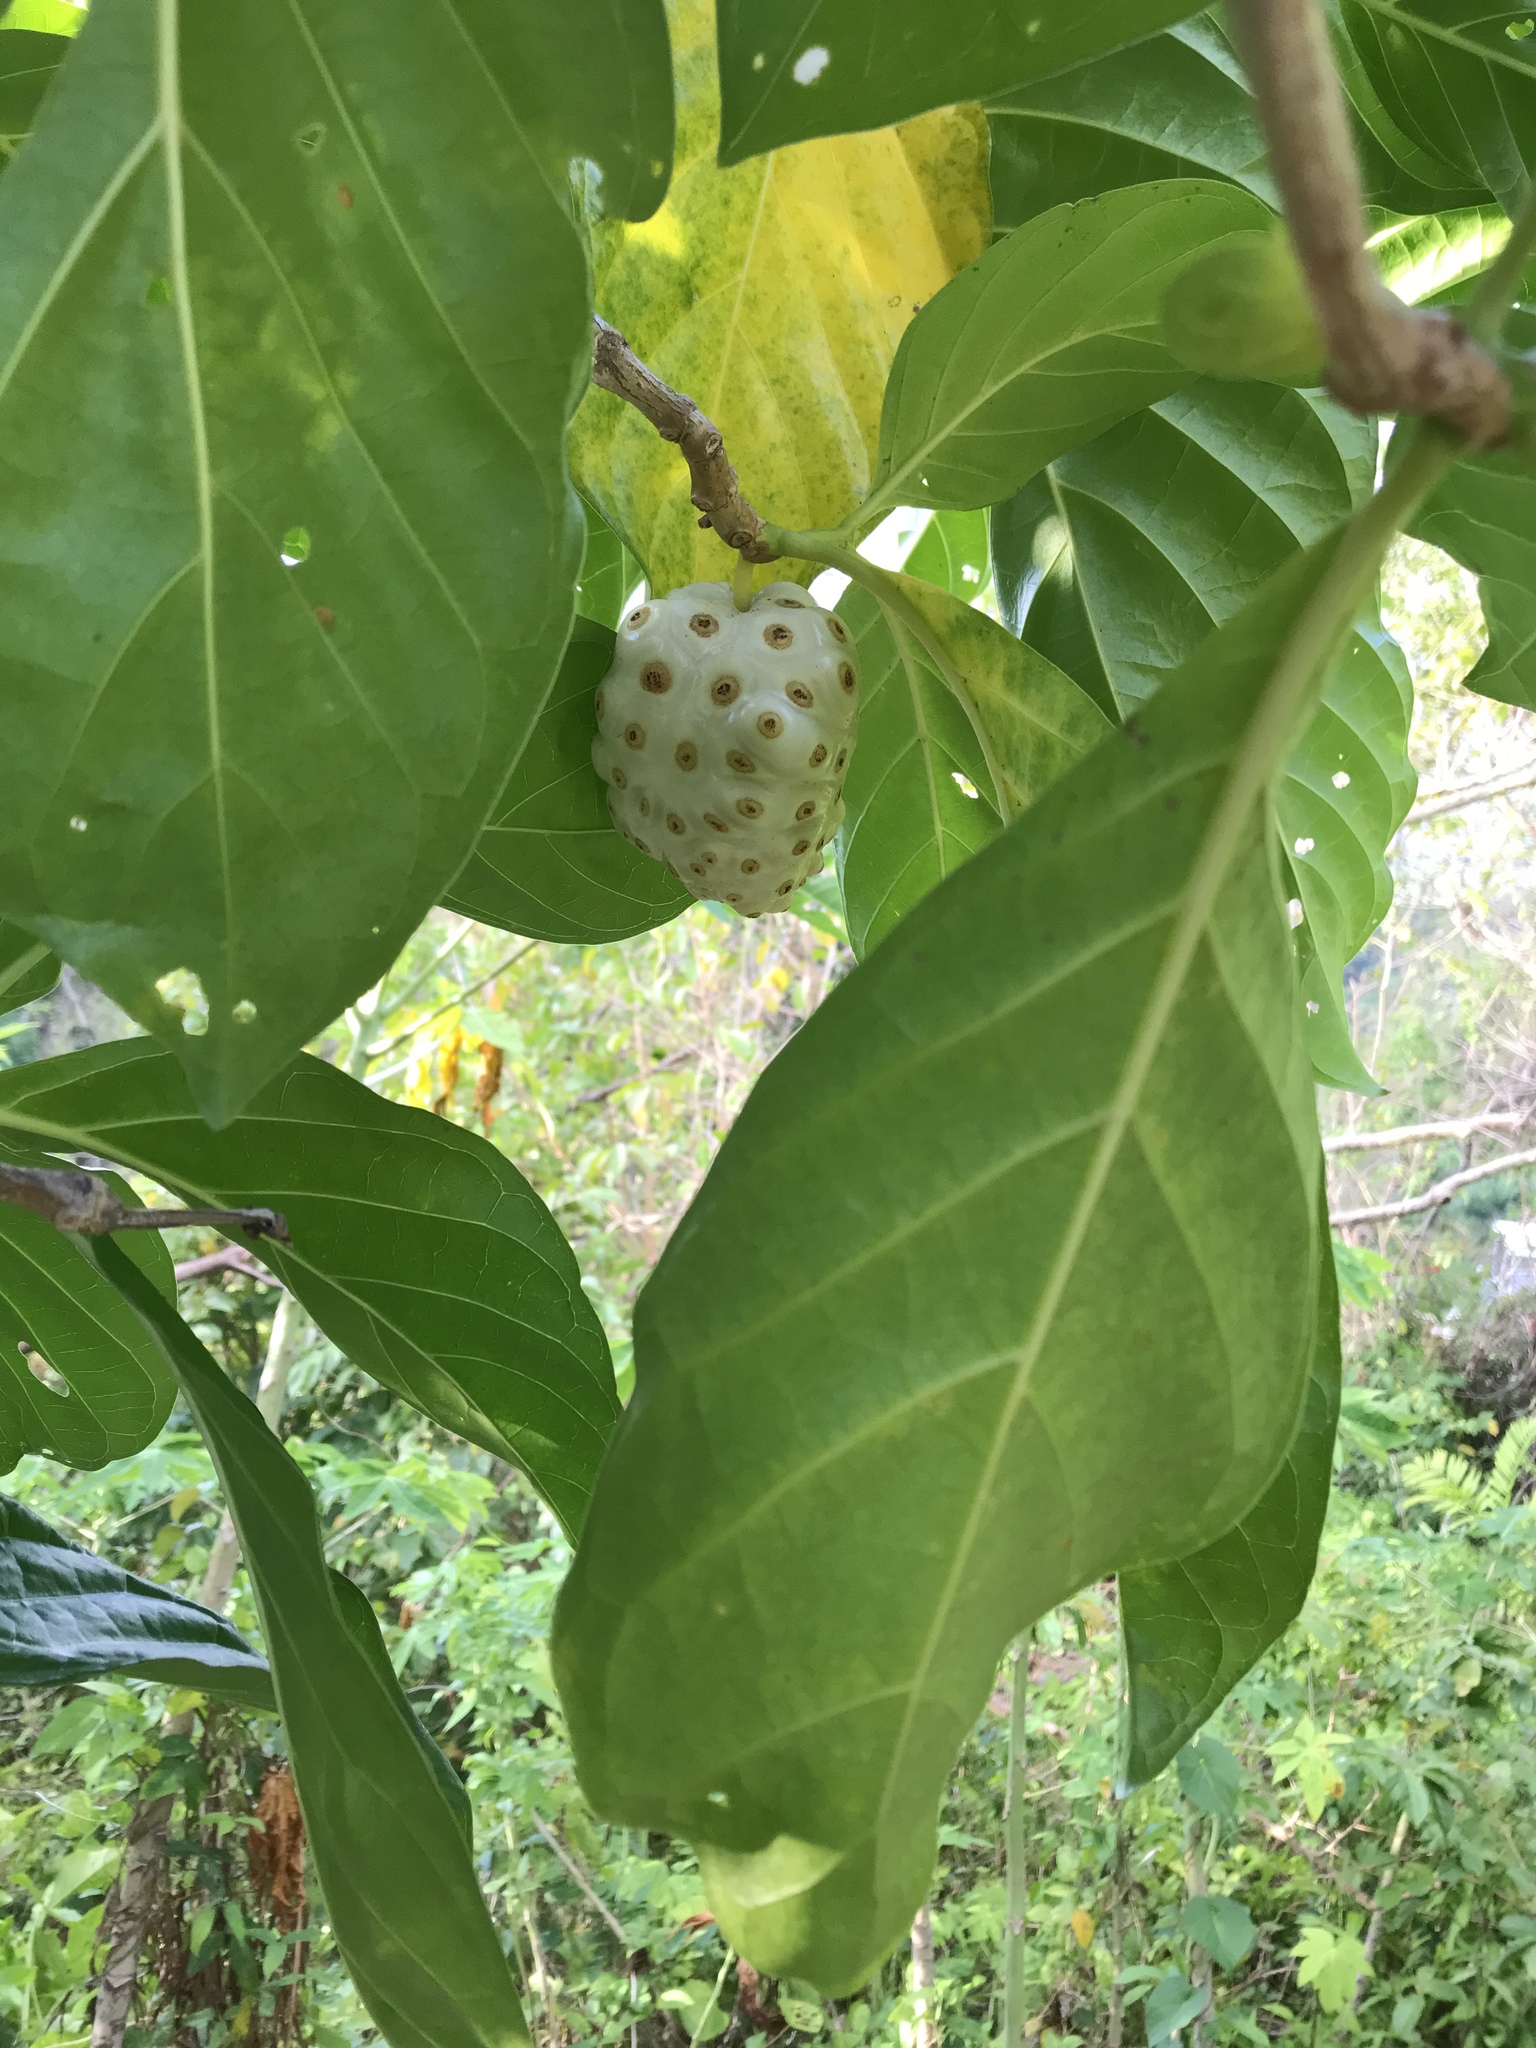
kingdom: Plantae
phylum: Tracheophyta
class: Magnoliopsida
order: Gentianales
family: Rubiaceae
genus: Morinda
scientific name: Morinda citrifolia
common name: Indian-mulberry
